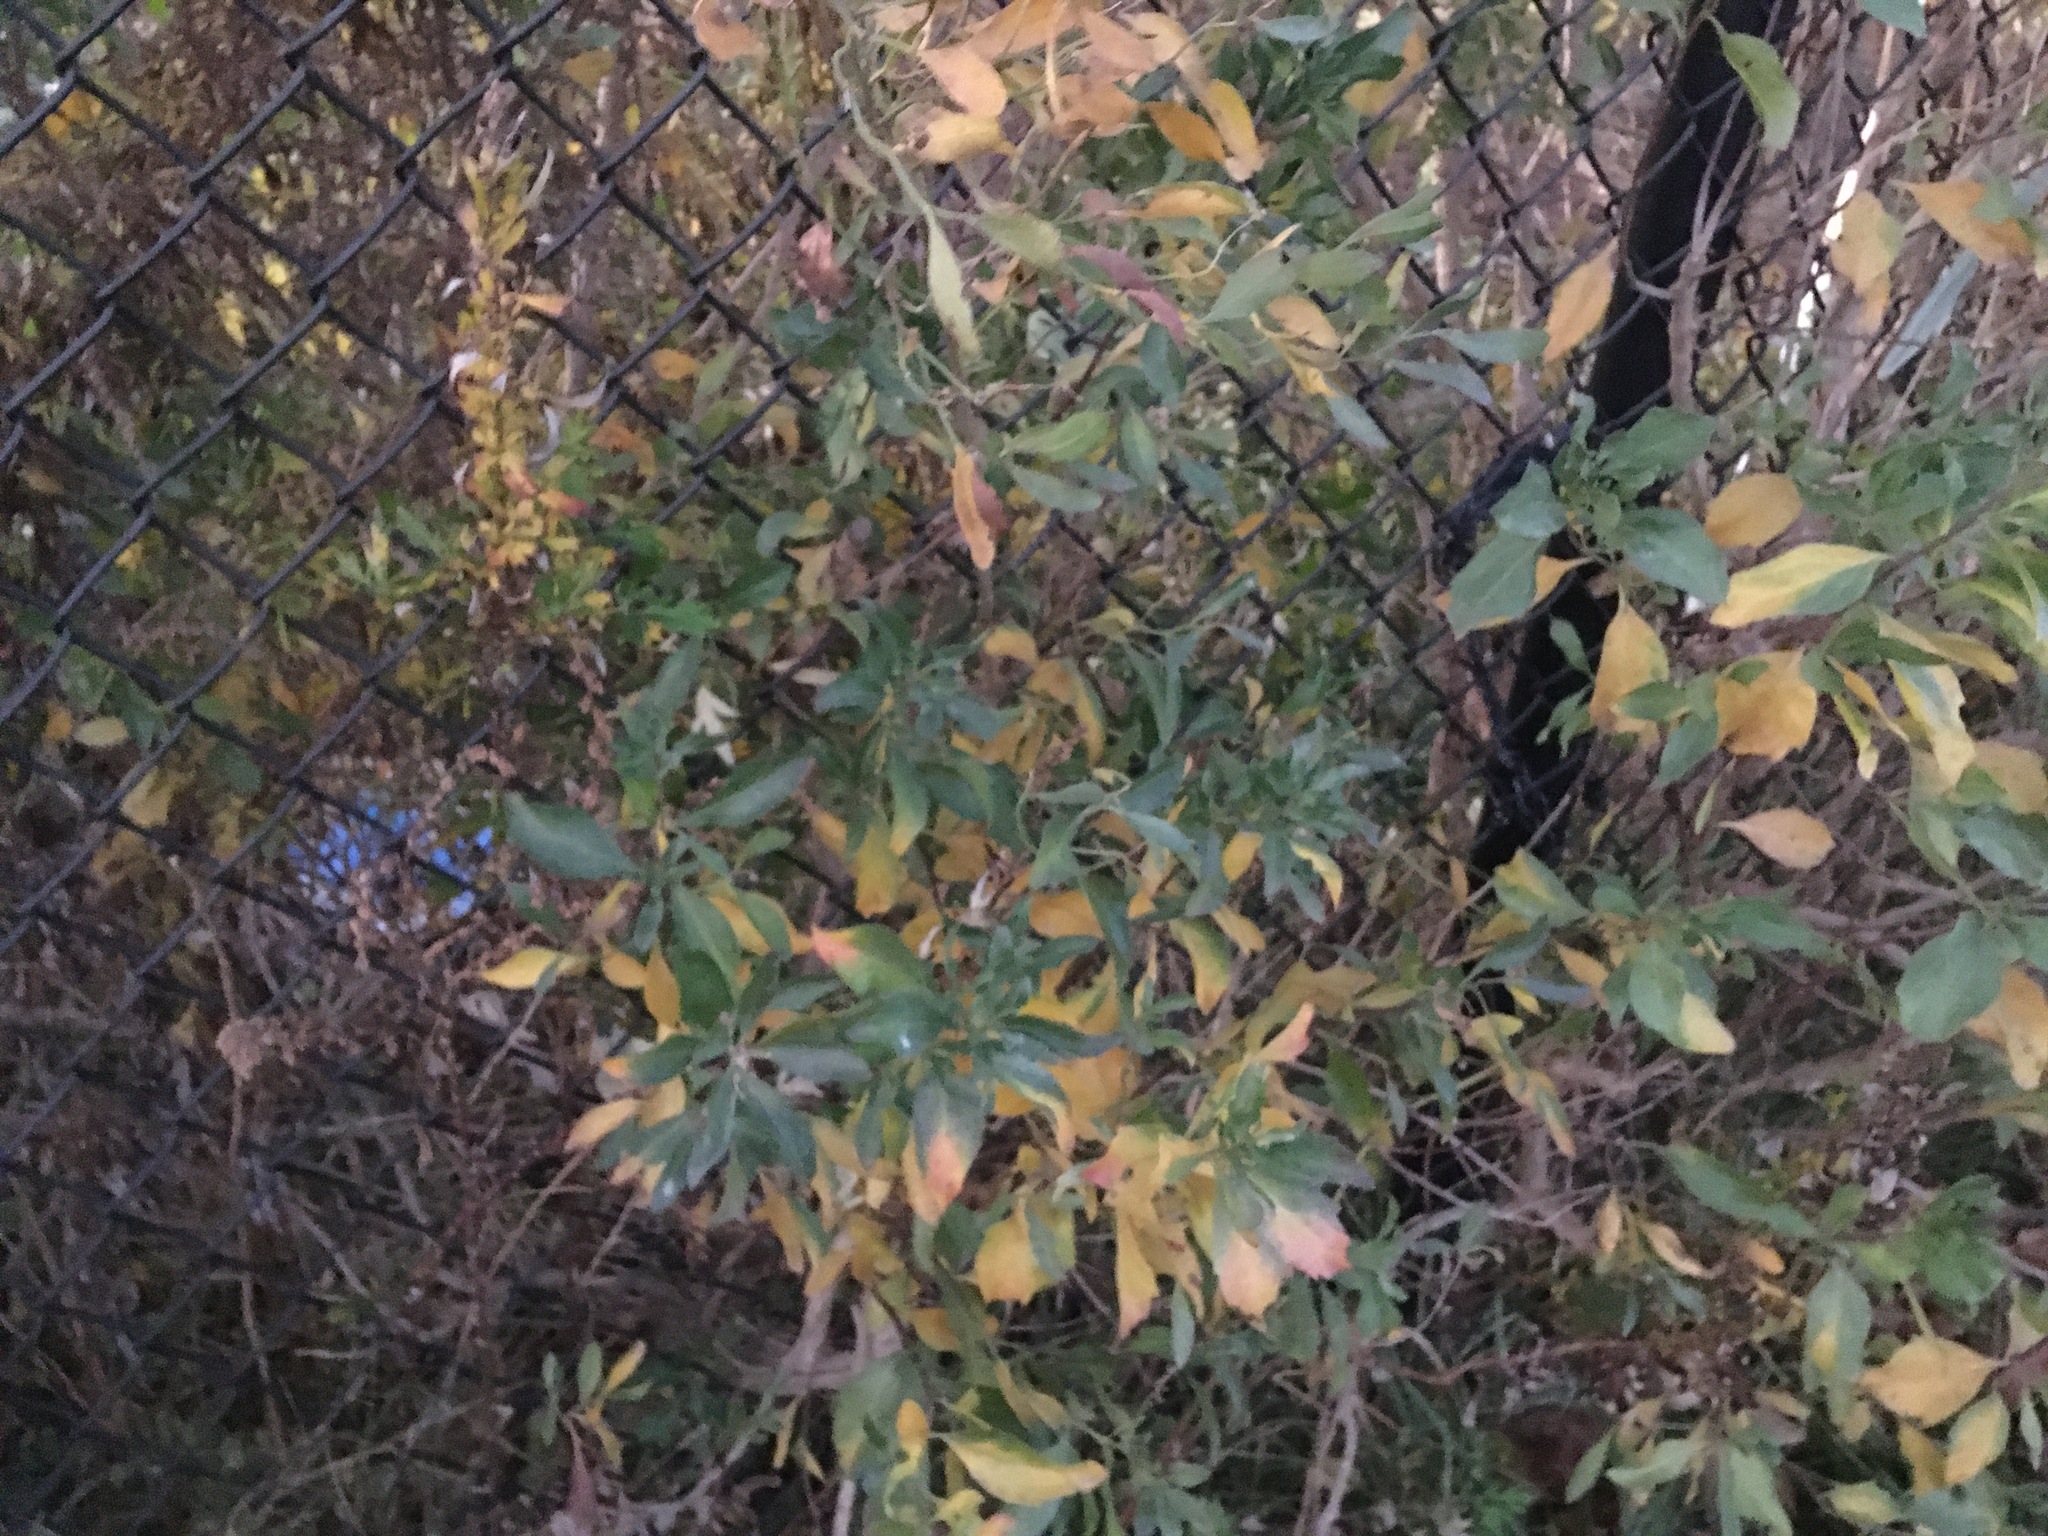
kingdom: Plantae
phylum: Tracheophyta
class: Magnoliopsida
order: Asterales
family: Asteraceae
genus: Baccharis
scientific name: Baccharis halimifolia
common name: Eastern baccharis
